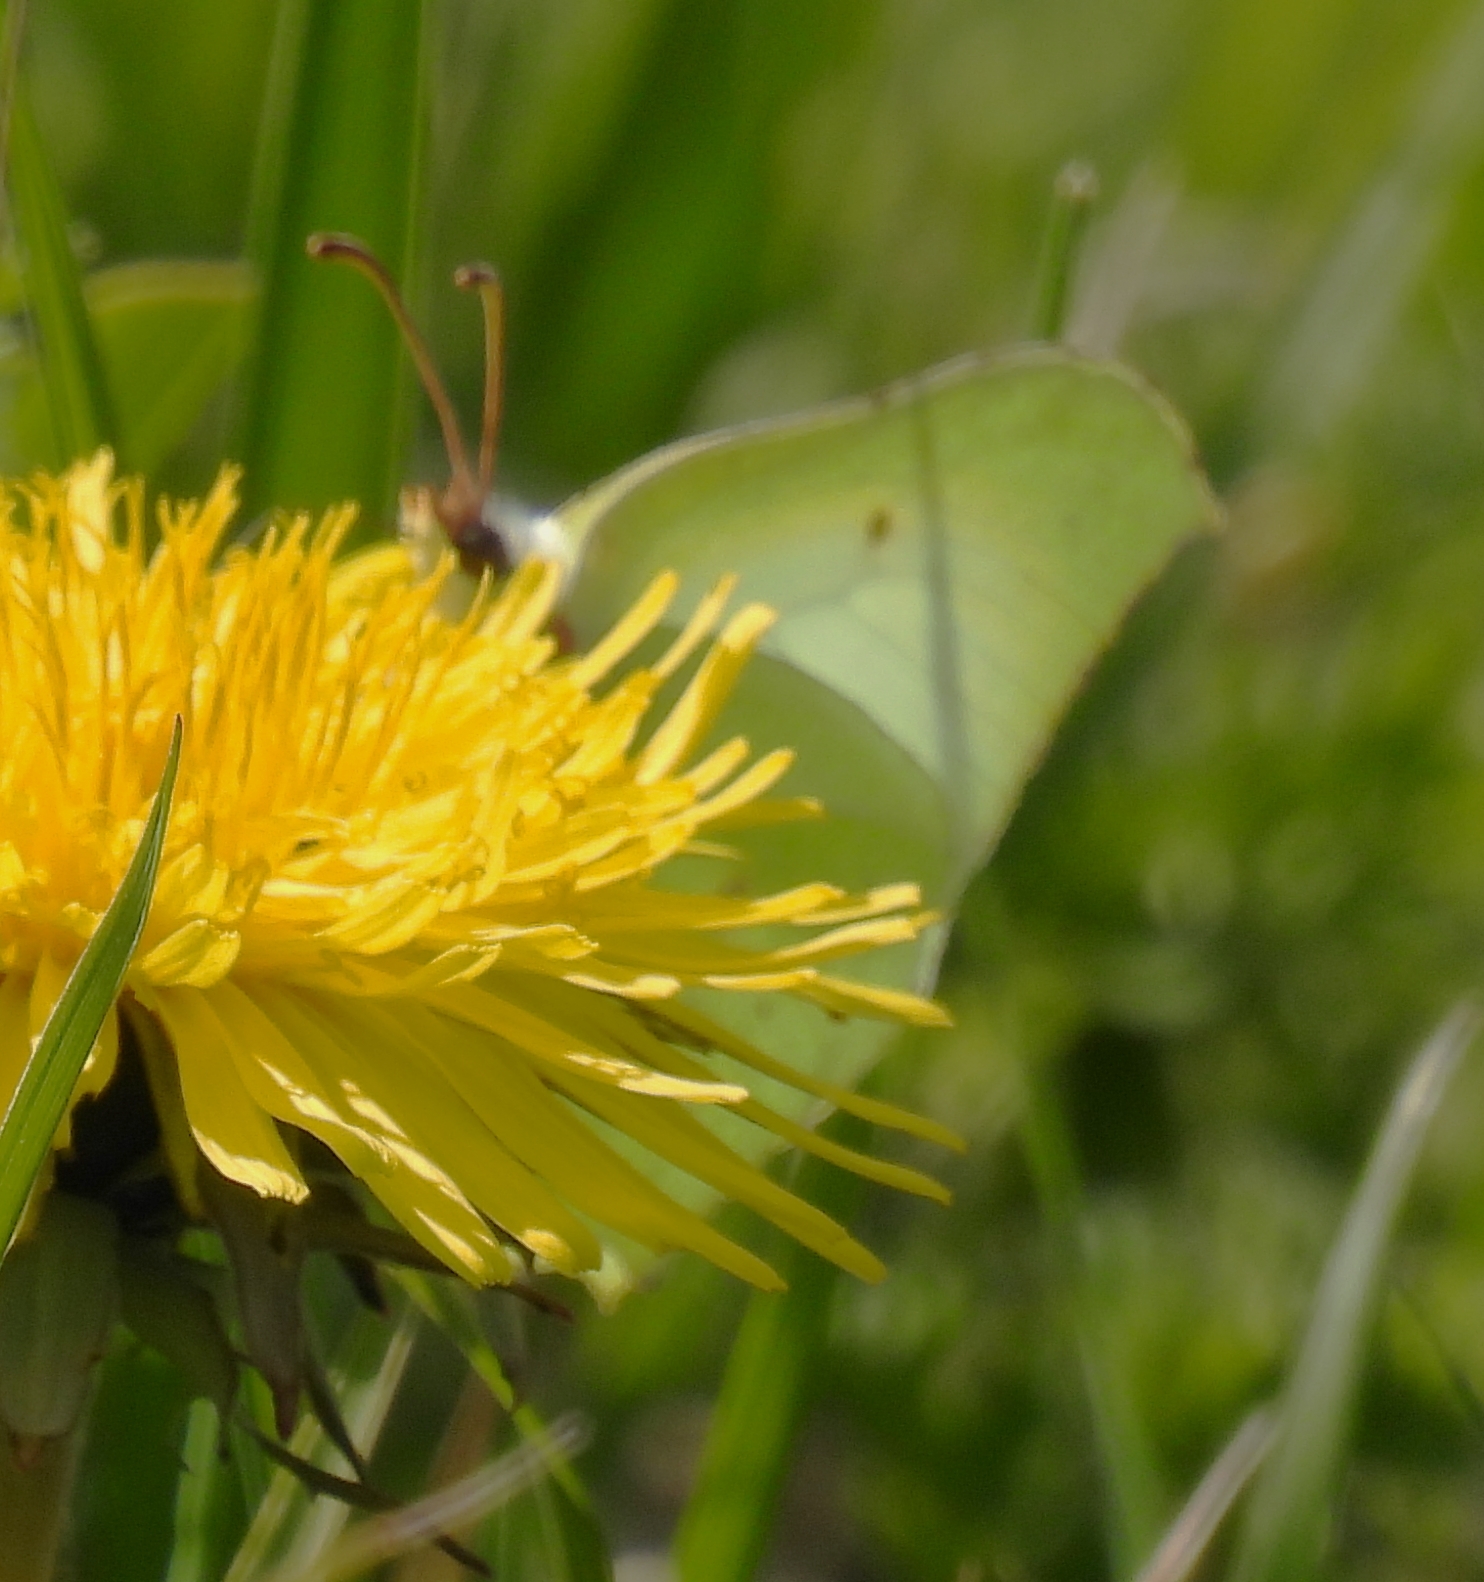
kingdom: Animalia
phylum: Arthropoda
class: Insecta
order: Lepidoptera
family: Pieridae
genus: Gonepteryx
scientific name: Gonepteryx rhamni
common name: Brimstone
